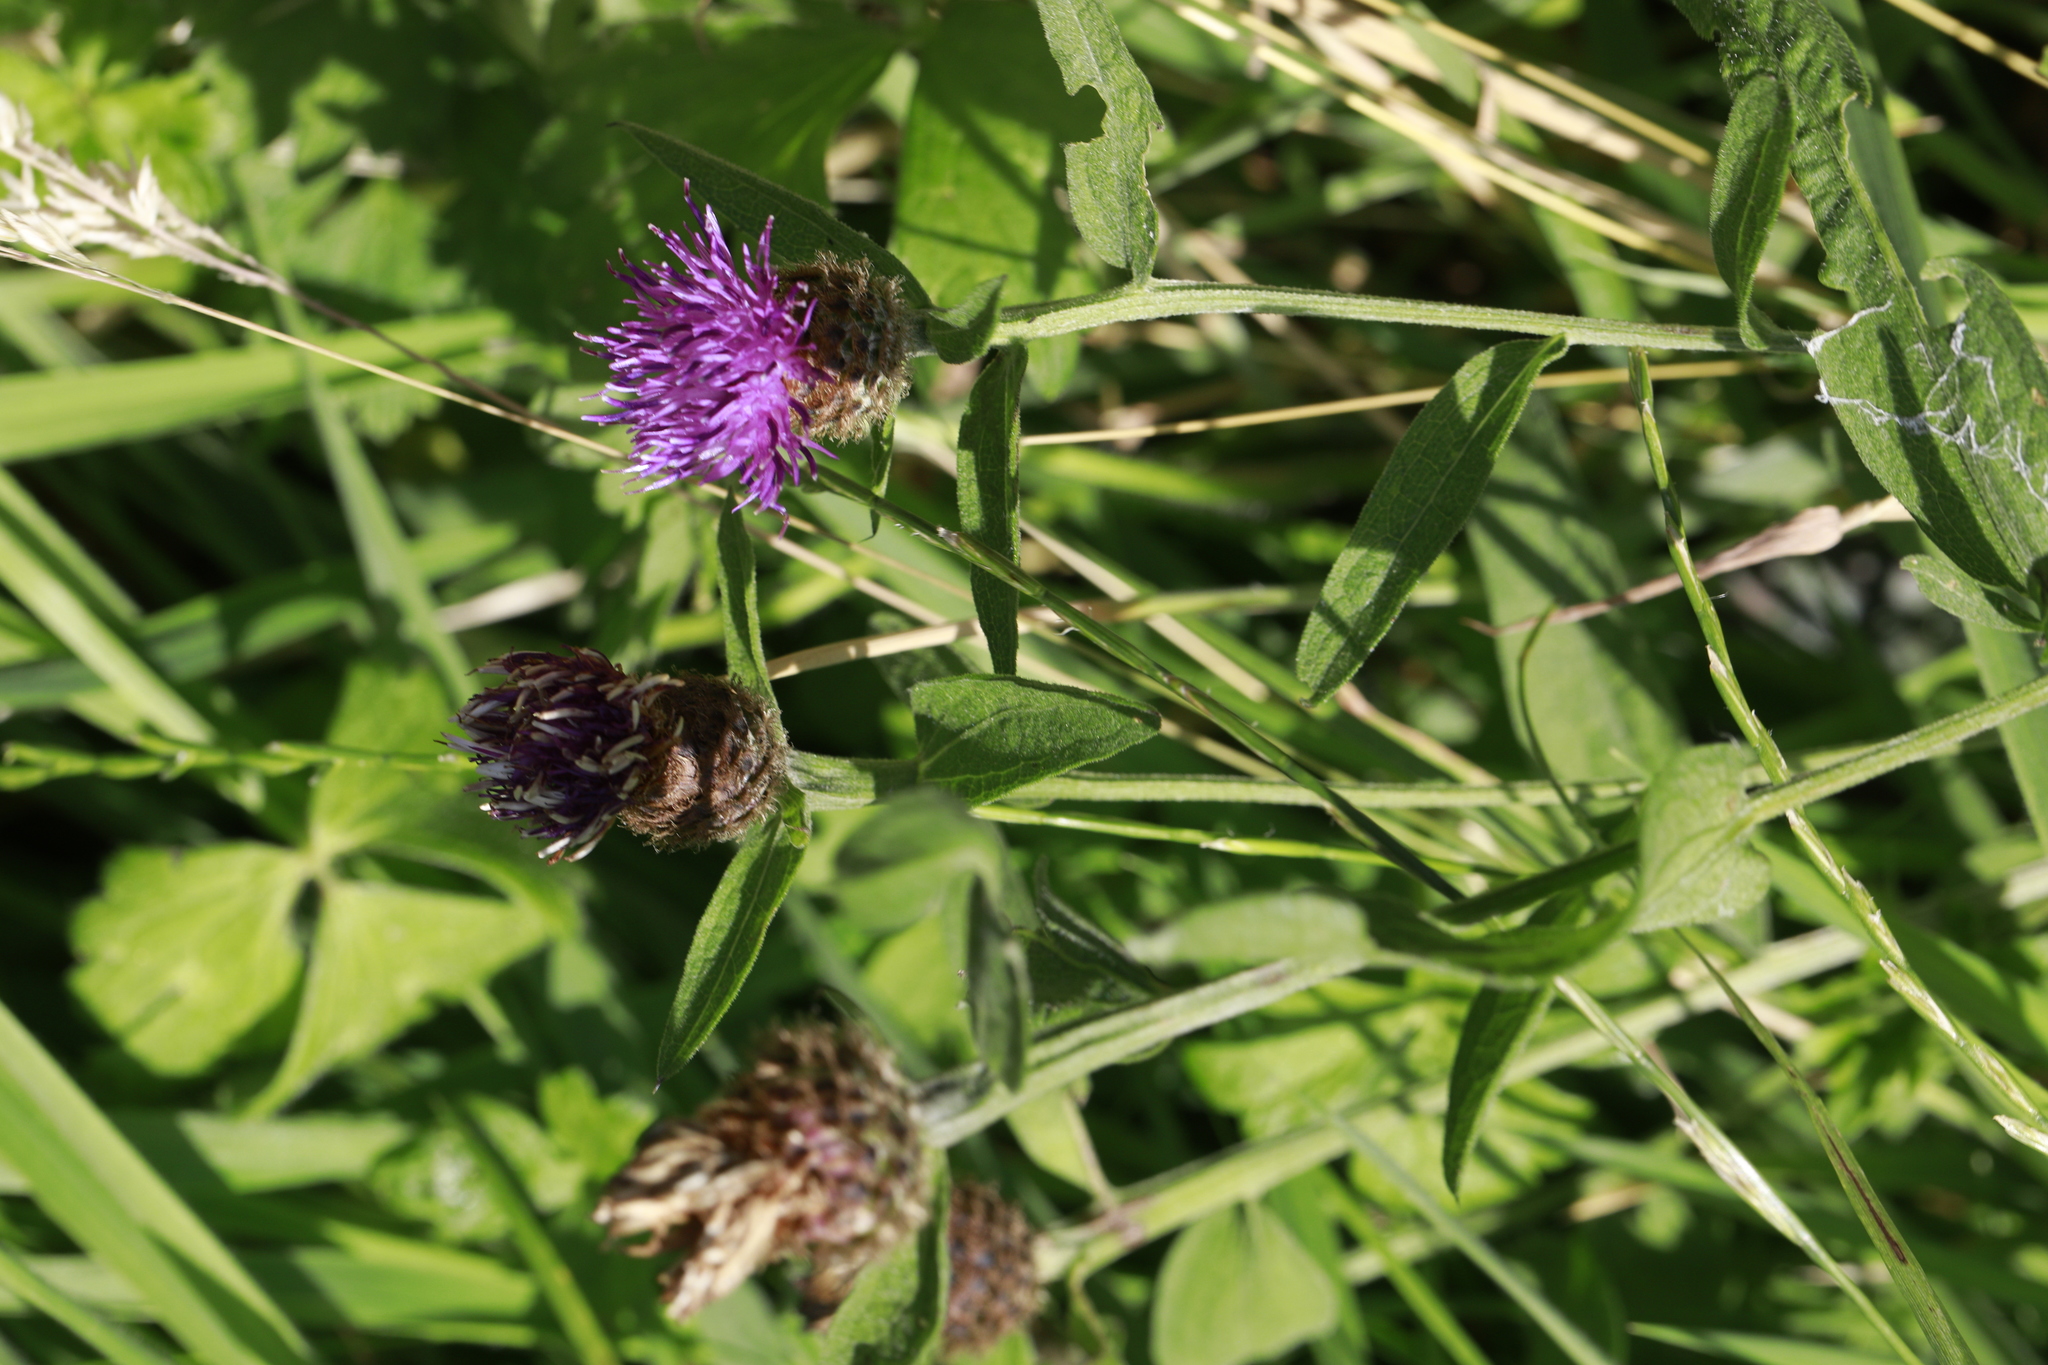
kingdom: Plantae
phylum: Tracheophyta
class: Magnoliopsida
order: Asterales
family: Asteraceae
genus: Centaurea
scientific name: Centaurea nigra
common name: Lesser knapweed
